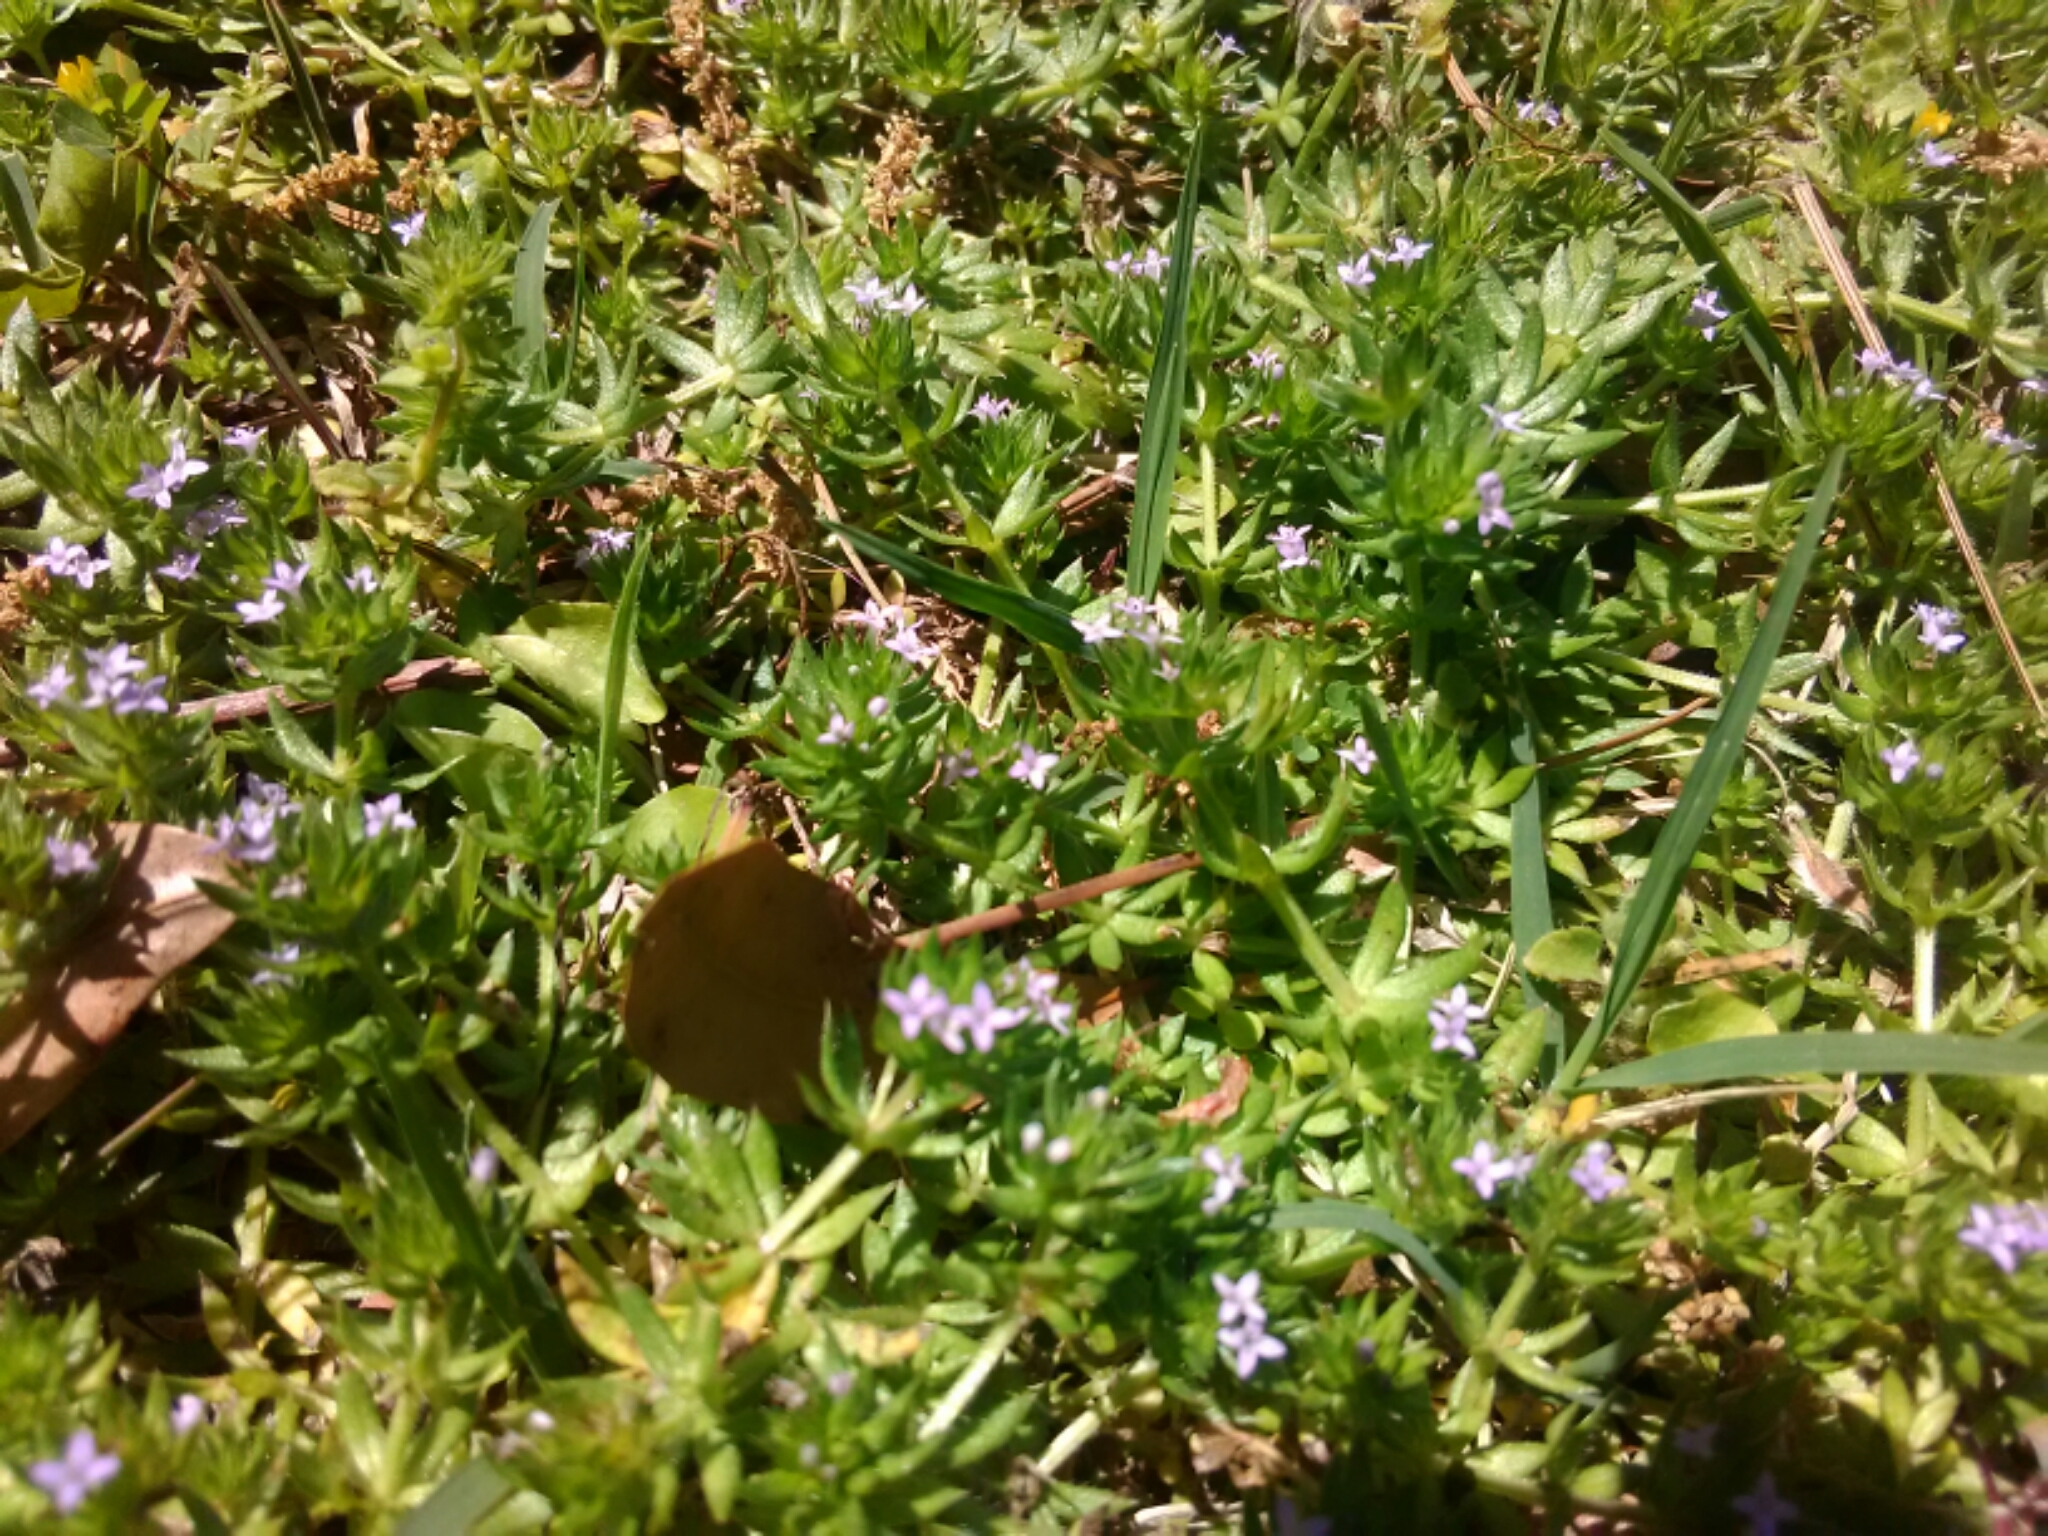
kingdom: Plantae
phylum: Tracheophyta
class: Magnoliopsida
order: Gentianales
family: Rubiaceae
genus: Sherardia
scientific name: Sherardia arvensis
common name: Field madder
